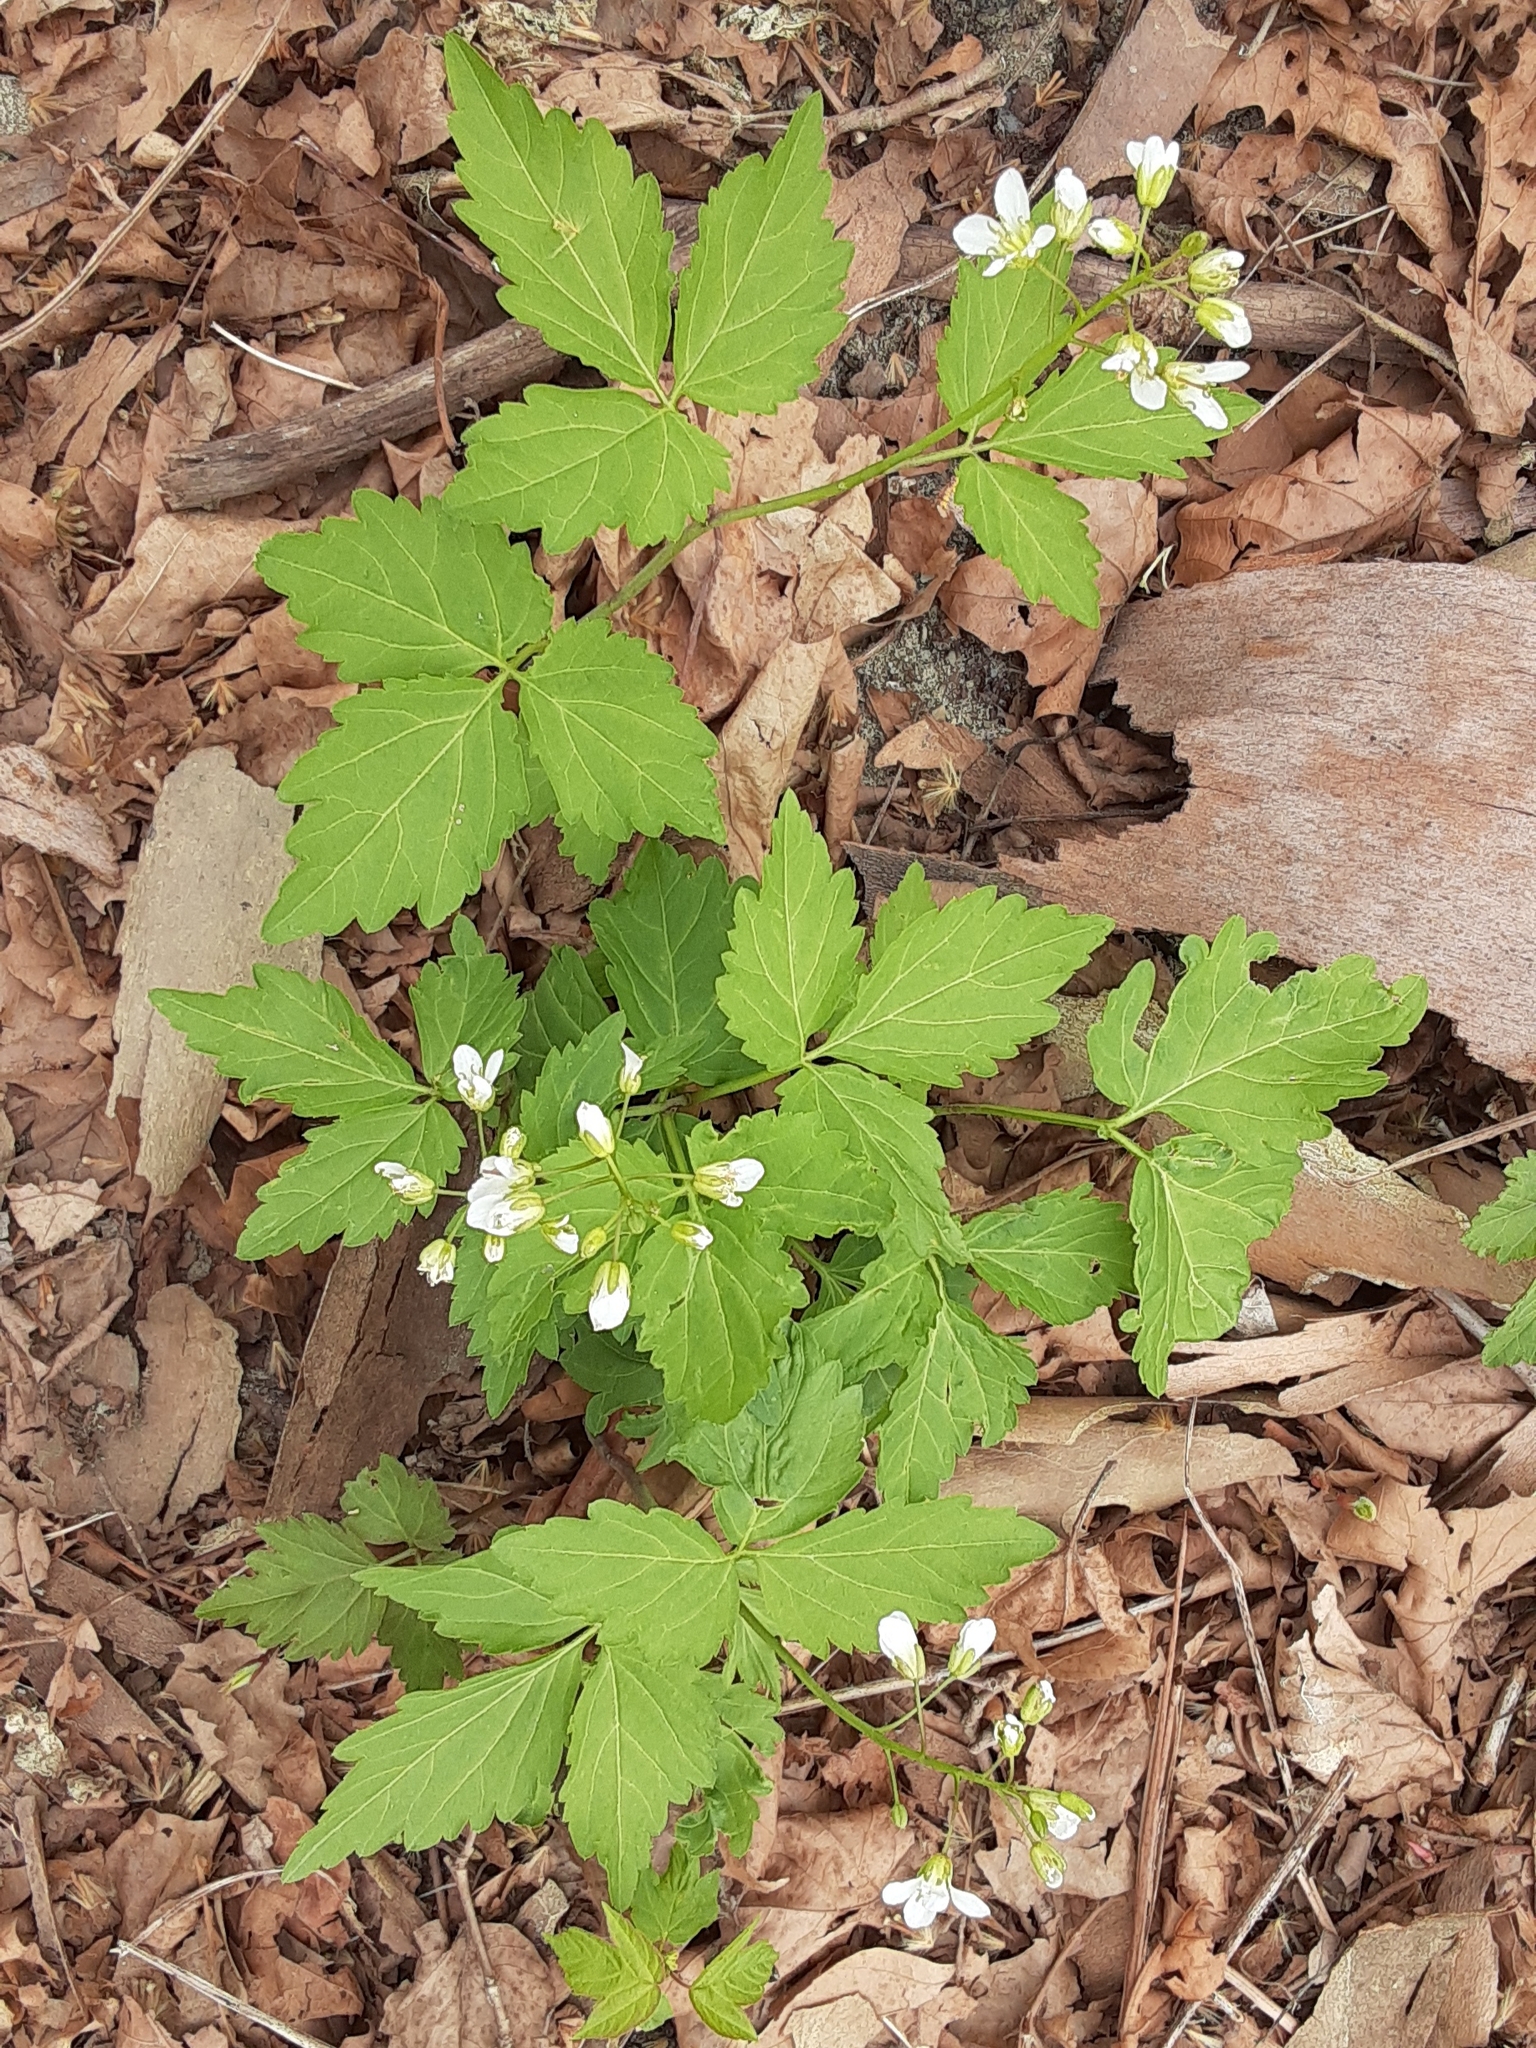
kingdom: Plantae
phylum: Tracheophyta
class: Magnoliopsida
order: Brassicales
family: Brassicaceae
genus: Cardamine
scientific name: Cardamine diphylla
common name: Broad-leaved toothwort
